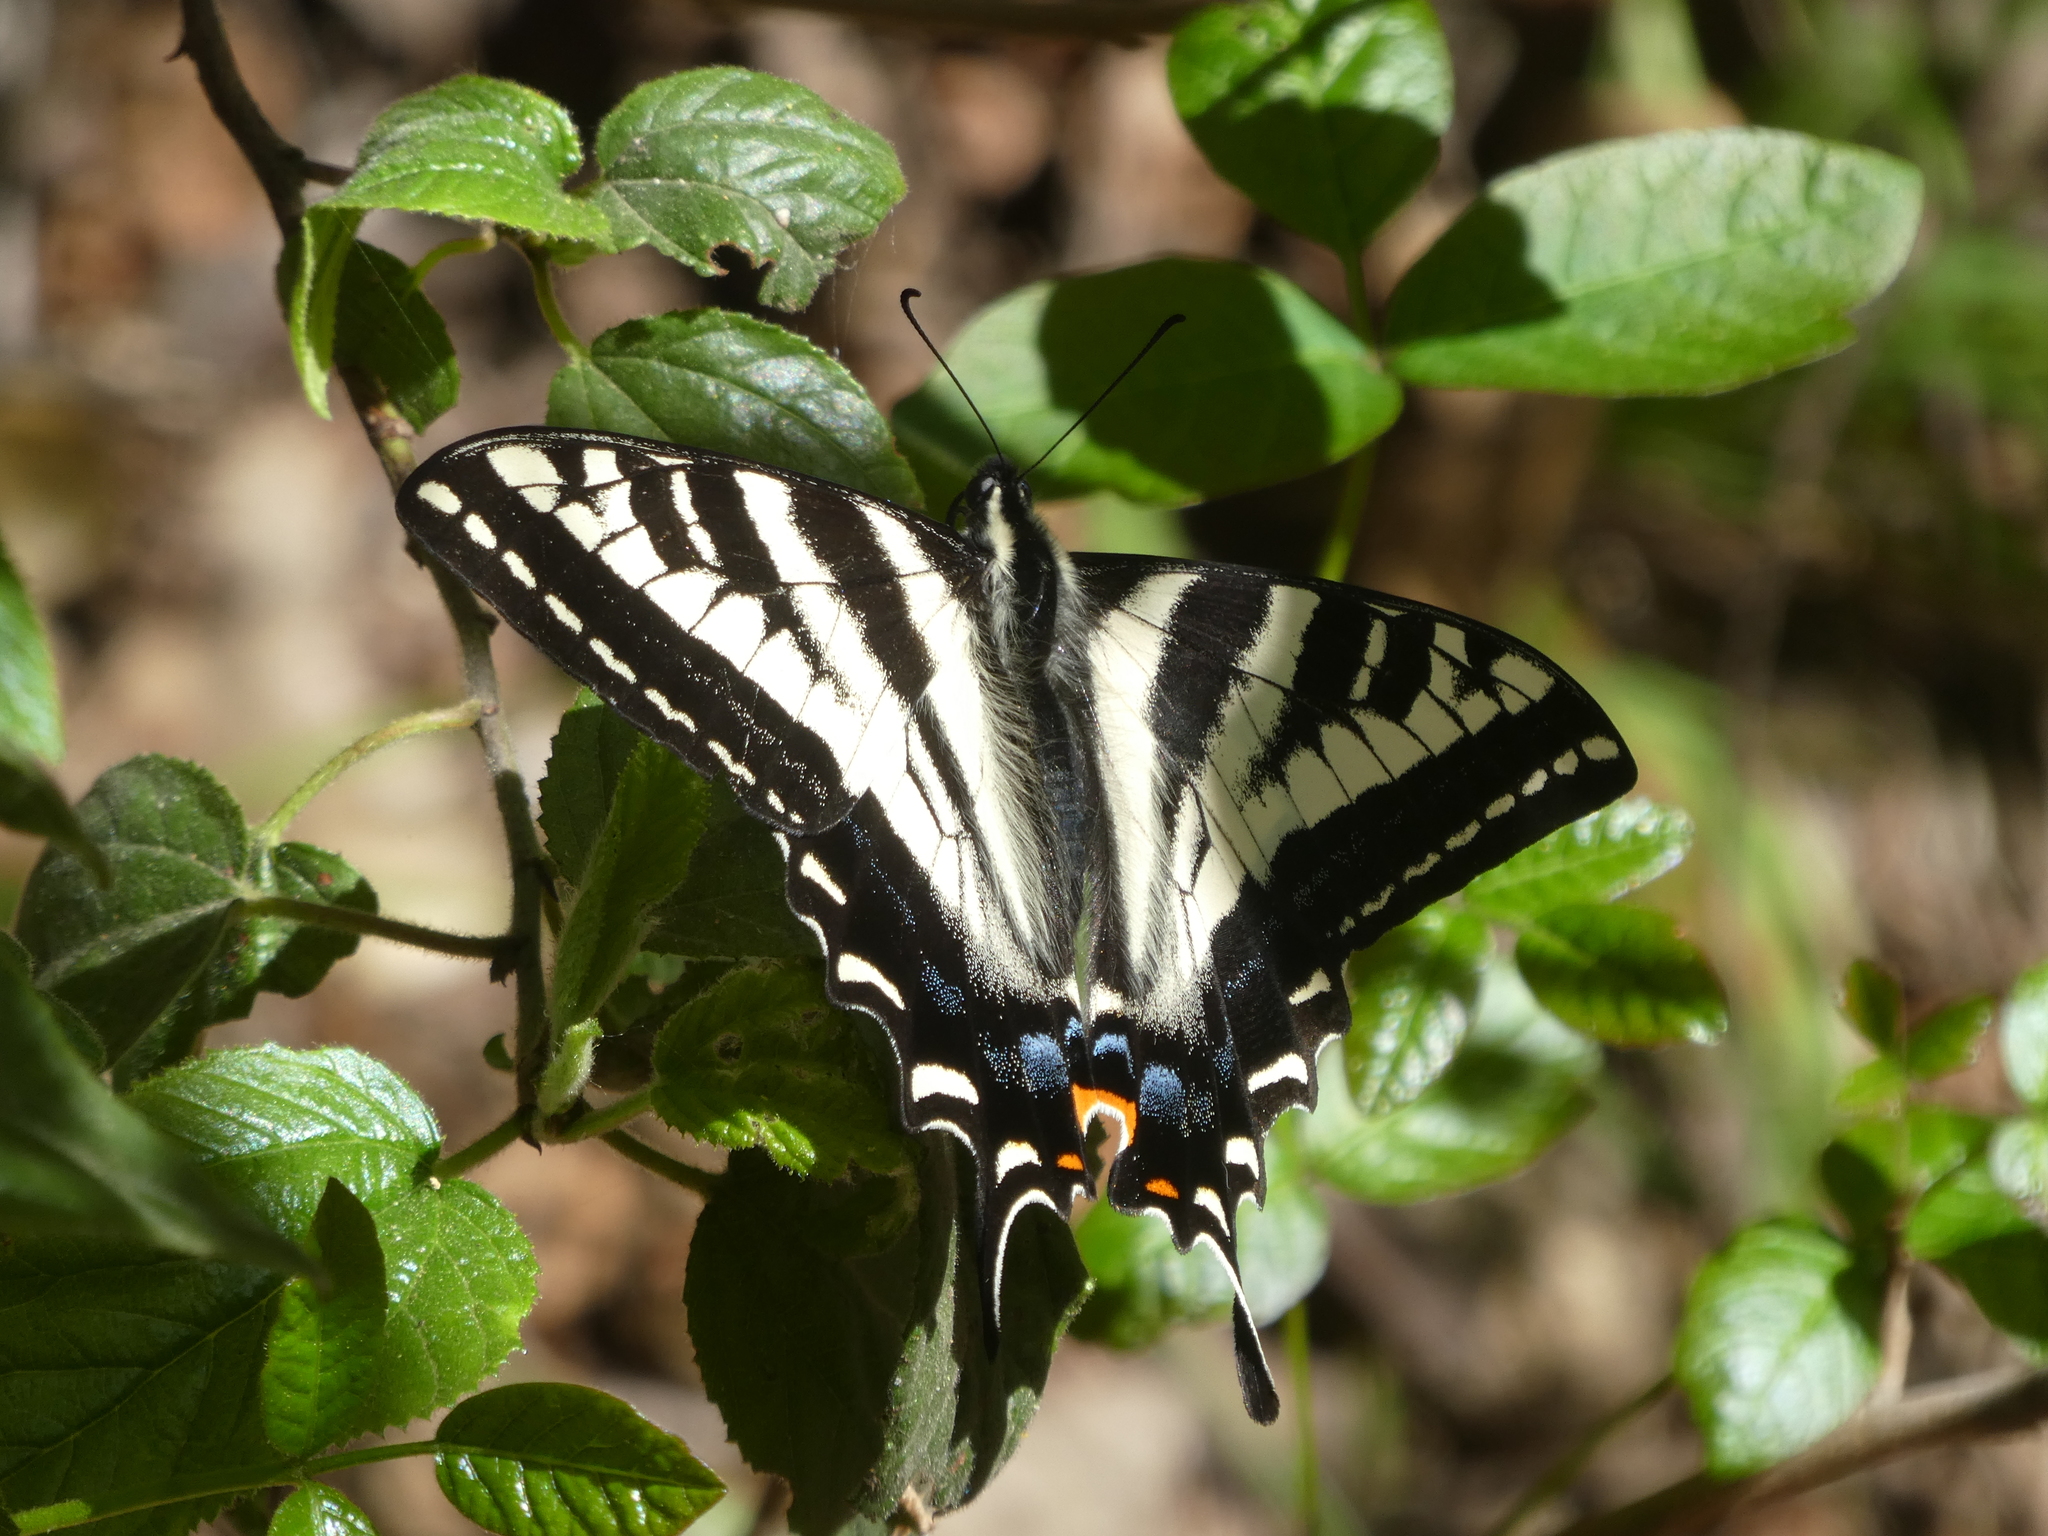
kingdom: Animalia
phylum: Arthropoda
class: Insecta
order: Lepidoptera
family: Papilionidae
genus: Papilio
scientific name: Papilio eurymedon
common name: Pale tiger swallowtail
